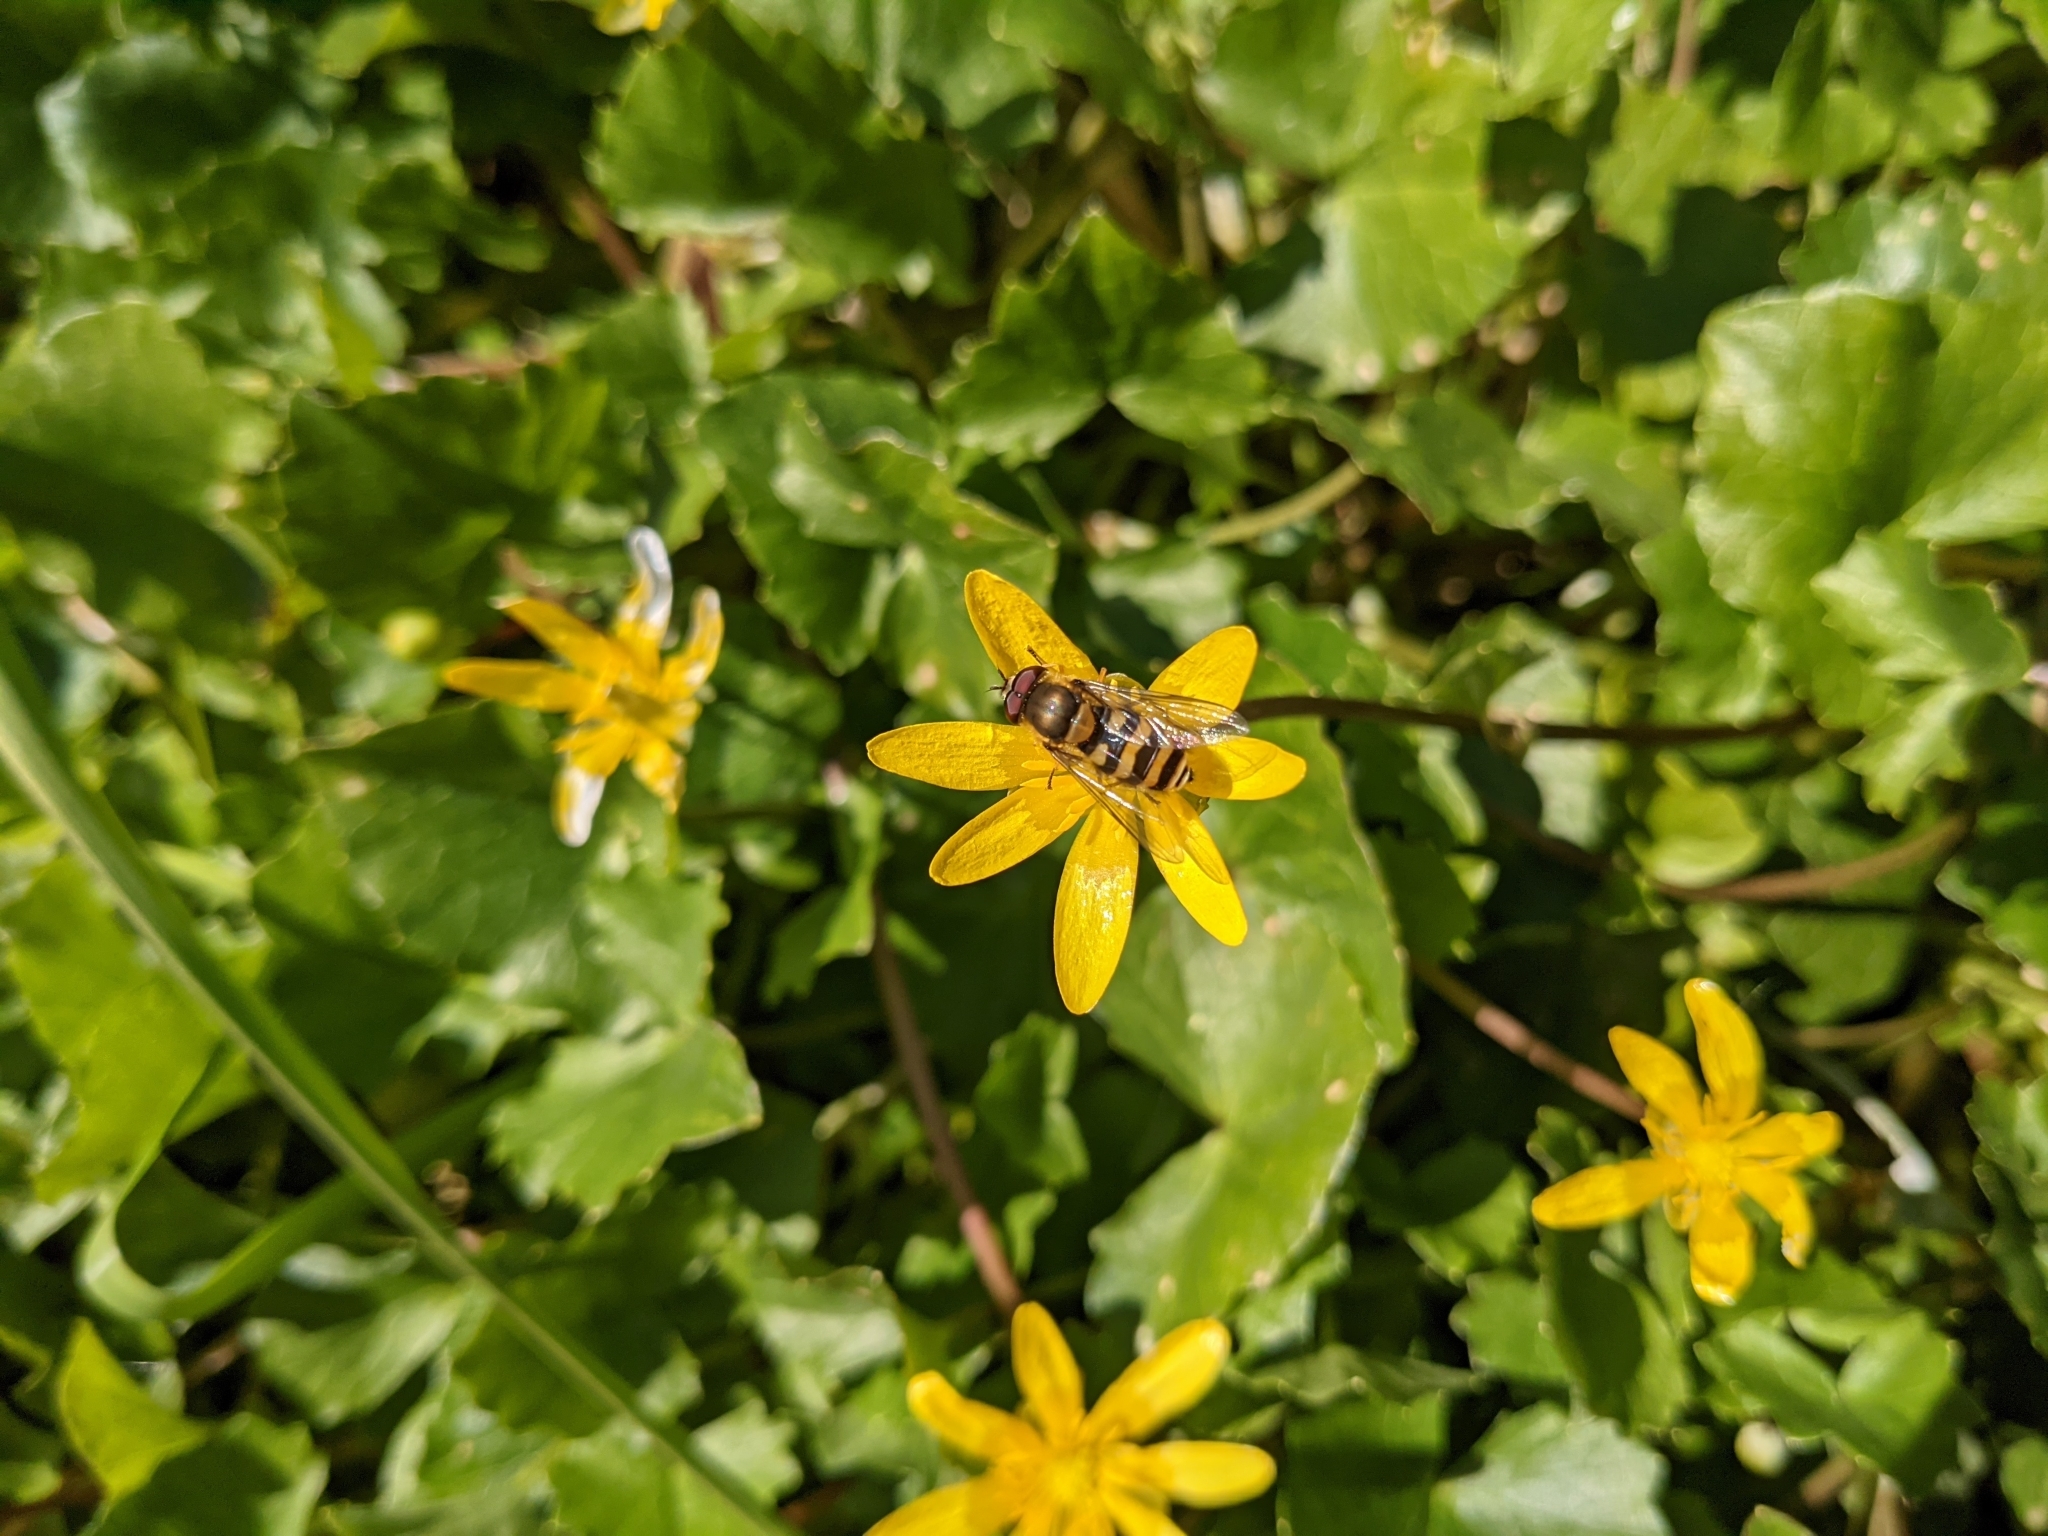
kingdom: Animalia
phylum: Arthropoda
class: Insecta
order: Diptera
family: Syrphidae
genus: Syrphus
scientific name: Syrphus
